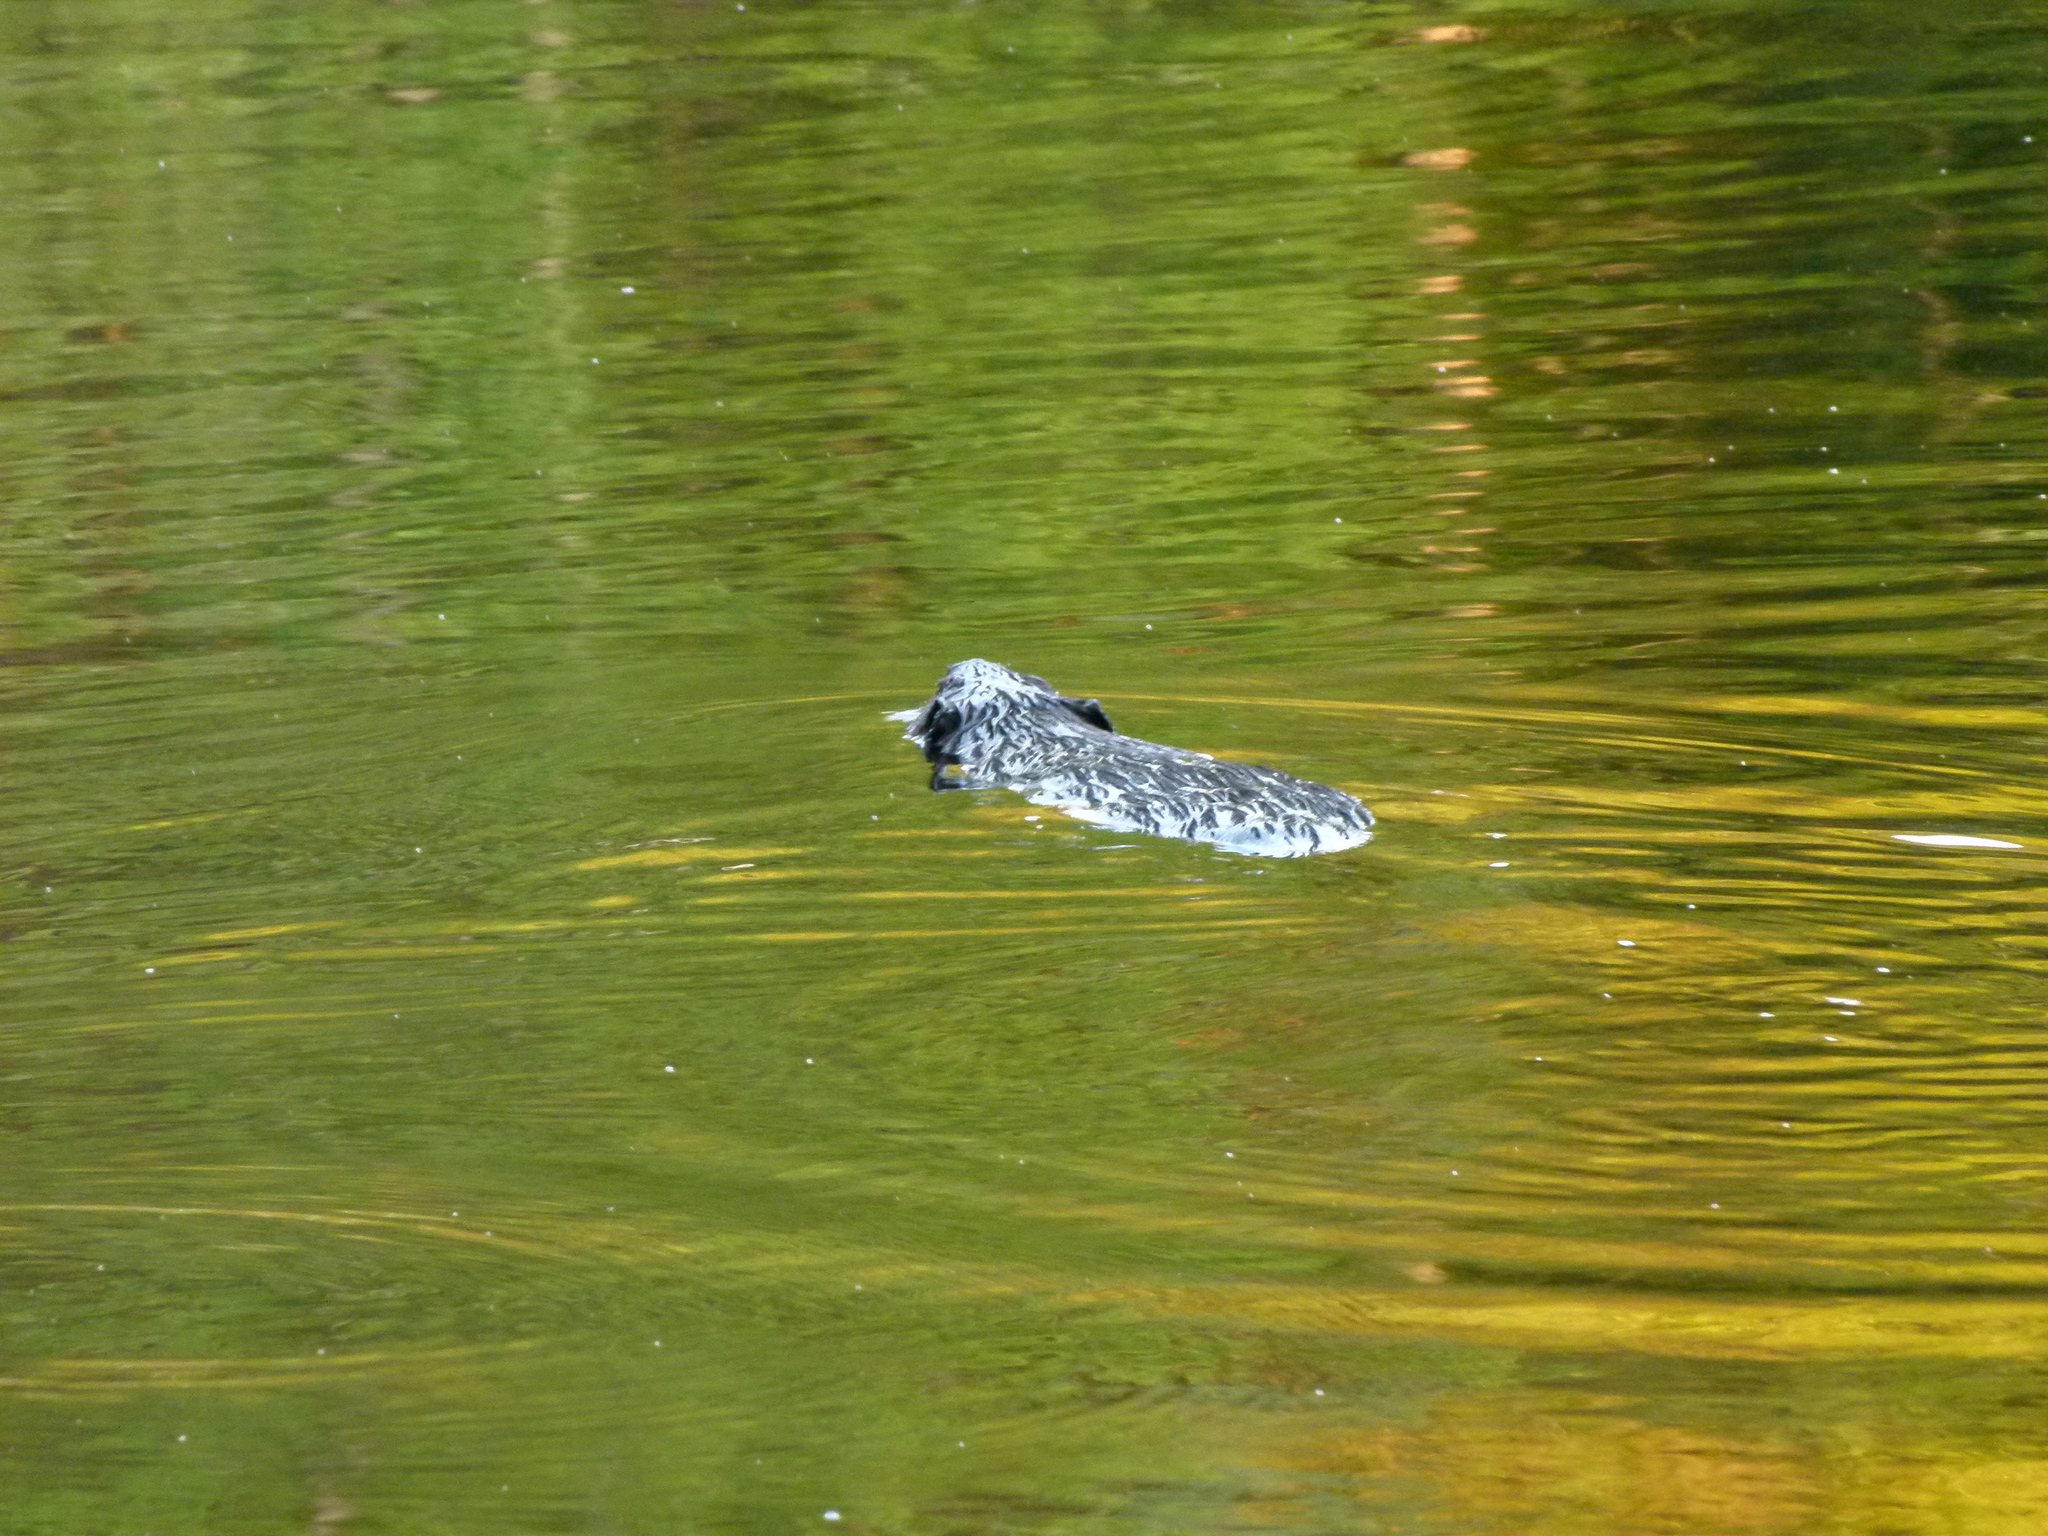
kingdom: Animalia
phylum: Chordata
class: Mammalia
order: Rodentia
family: Castoridae
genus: Castor
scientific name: Castor canadensis
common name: American beaver
